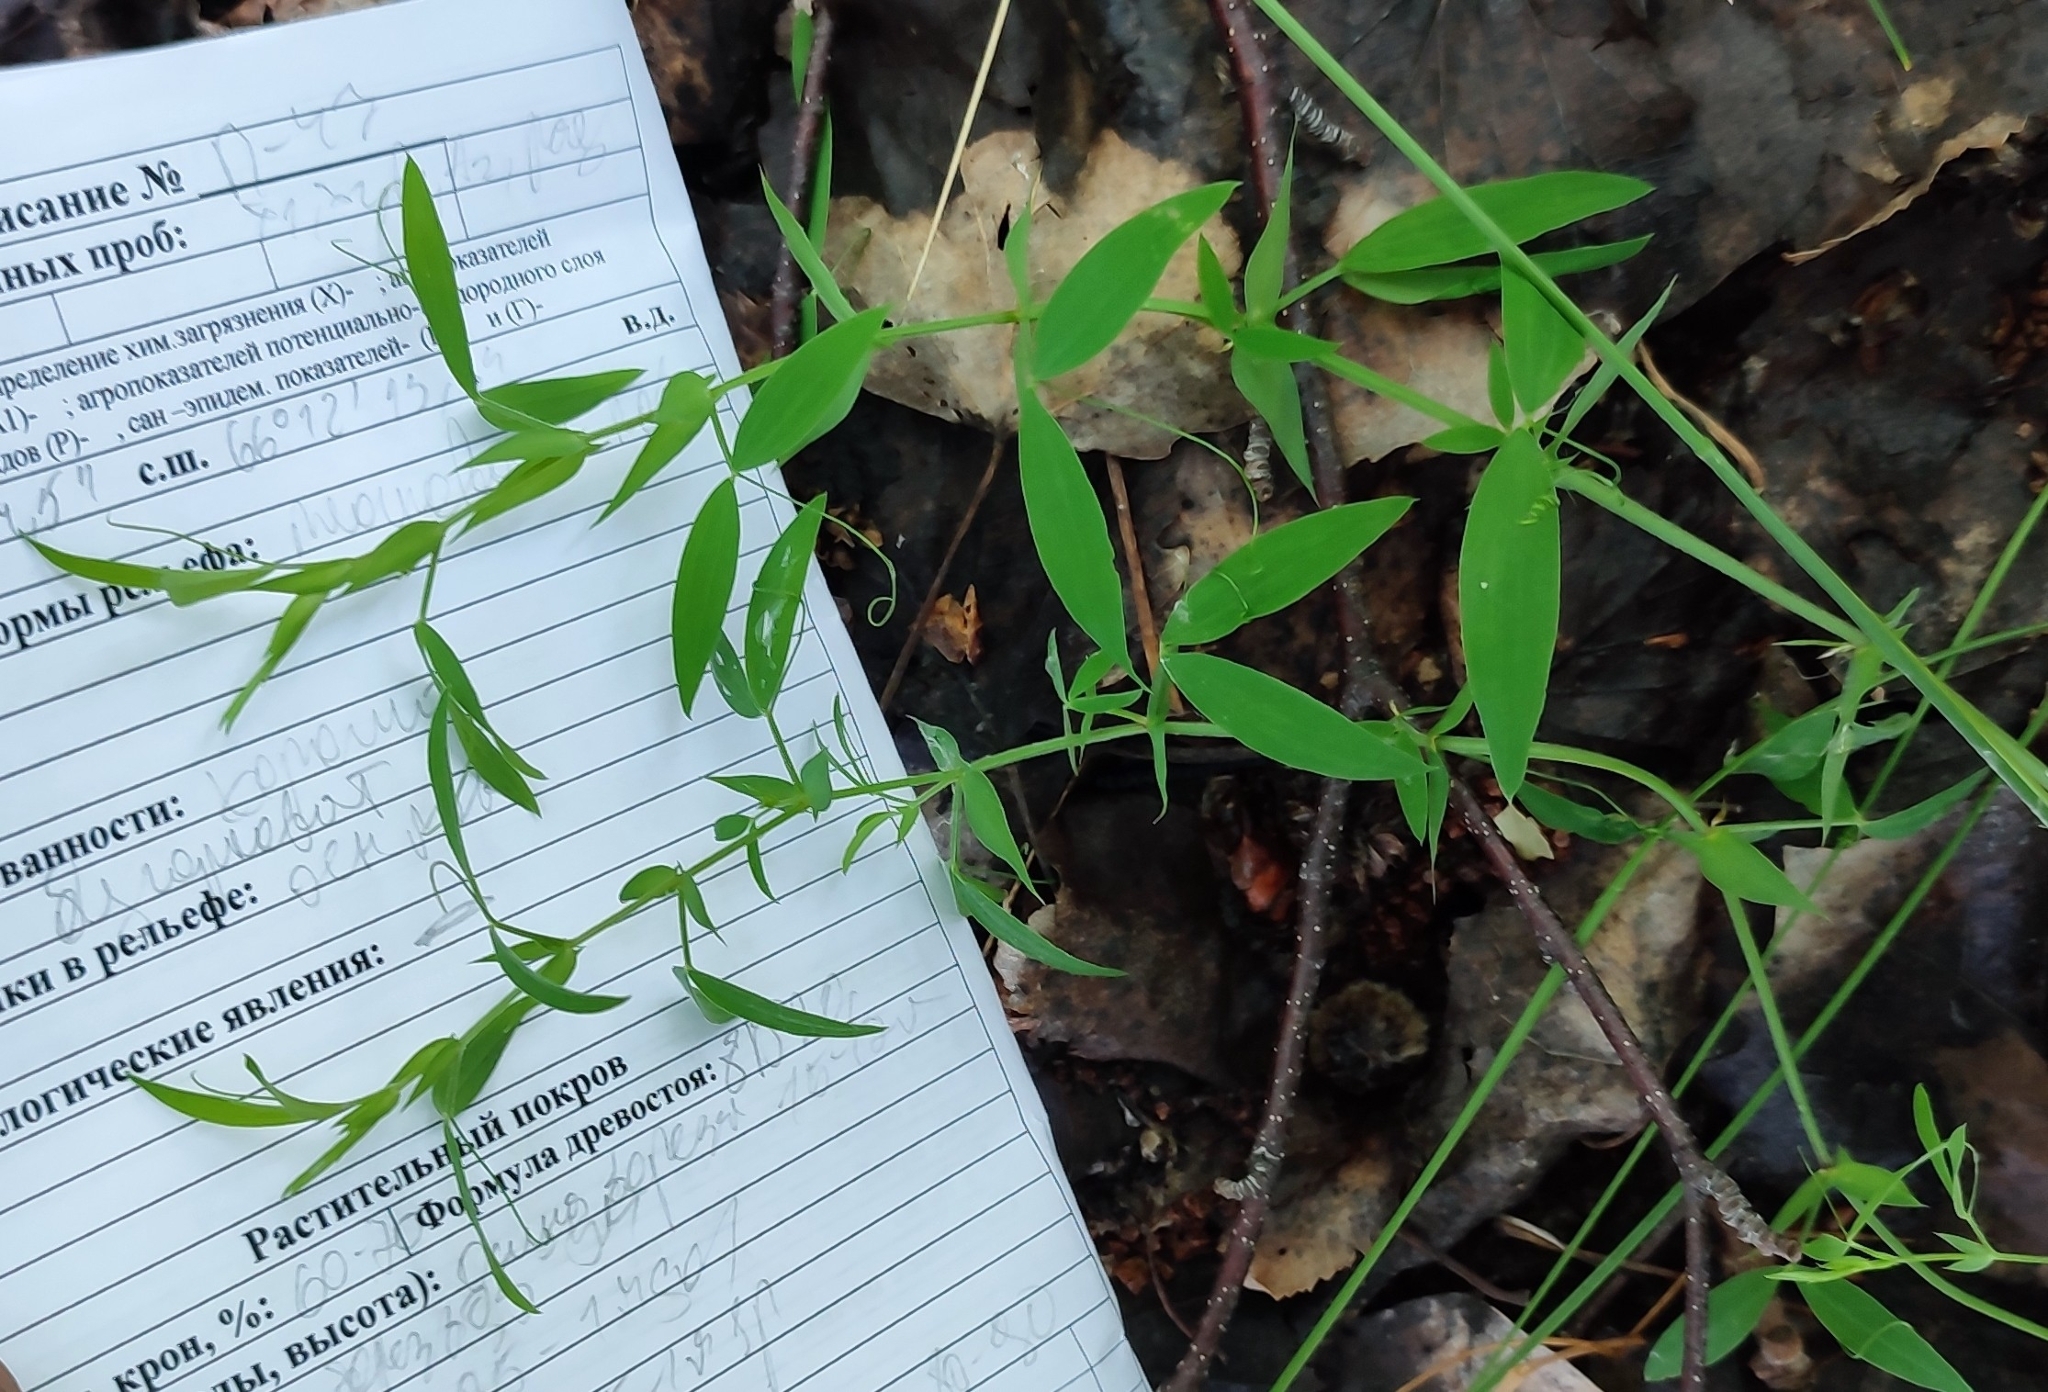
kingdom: Plantae
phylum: Tracheophyta
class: Magnoliopsida
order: Fabales
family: Fabaceae
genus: Lathyrus
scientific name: Lathyrus pratensis
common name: Meadow vetchling
